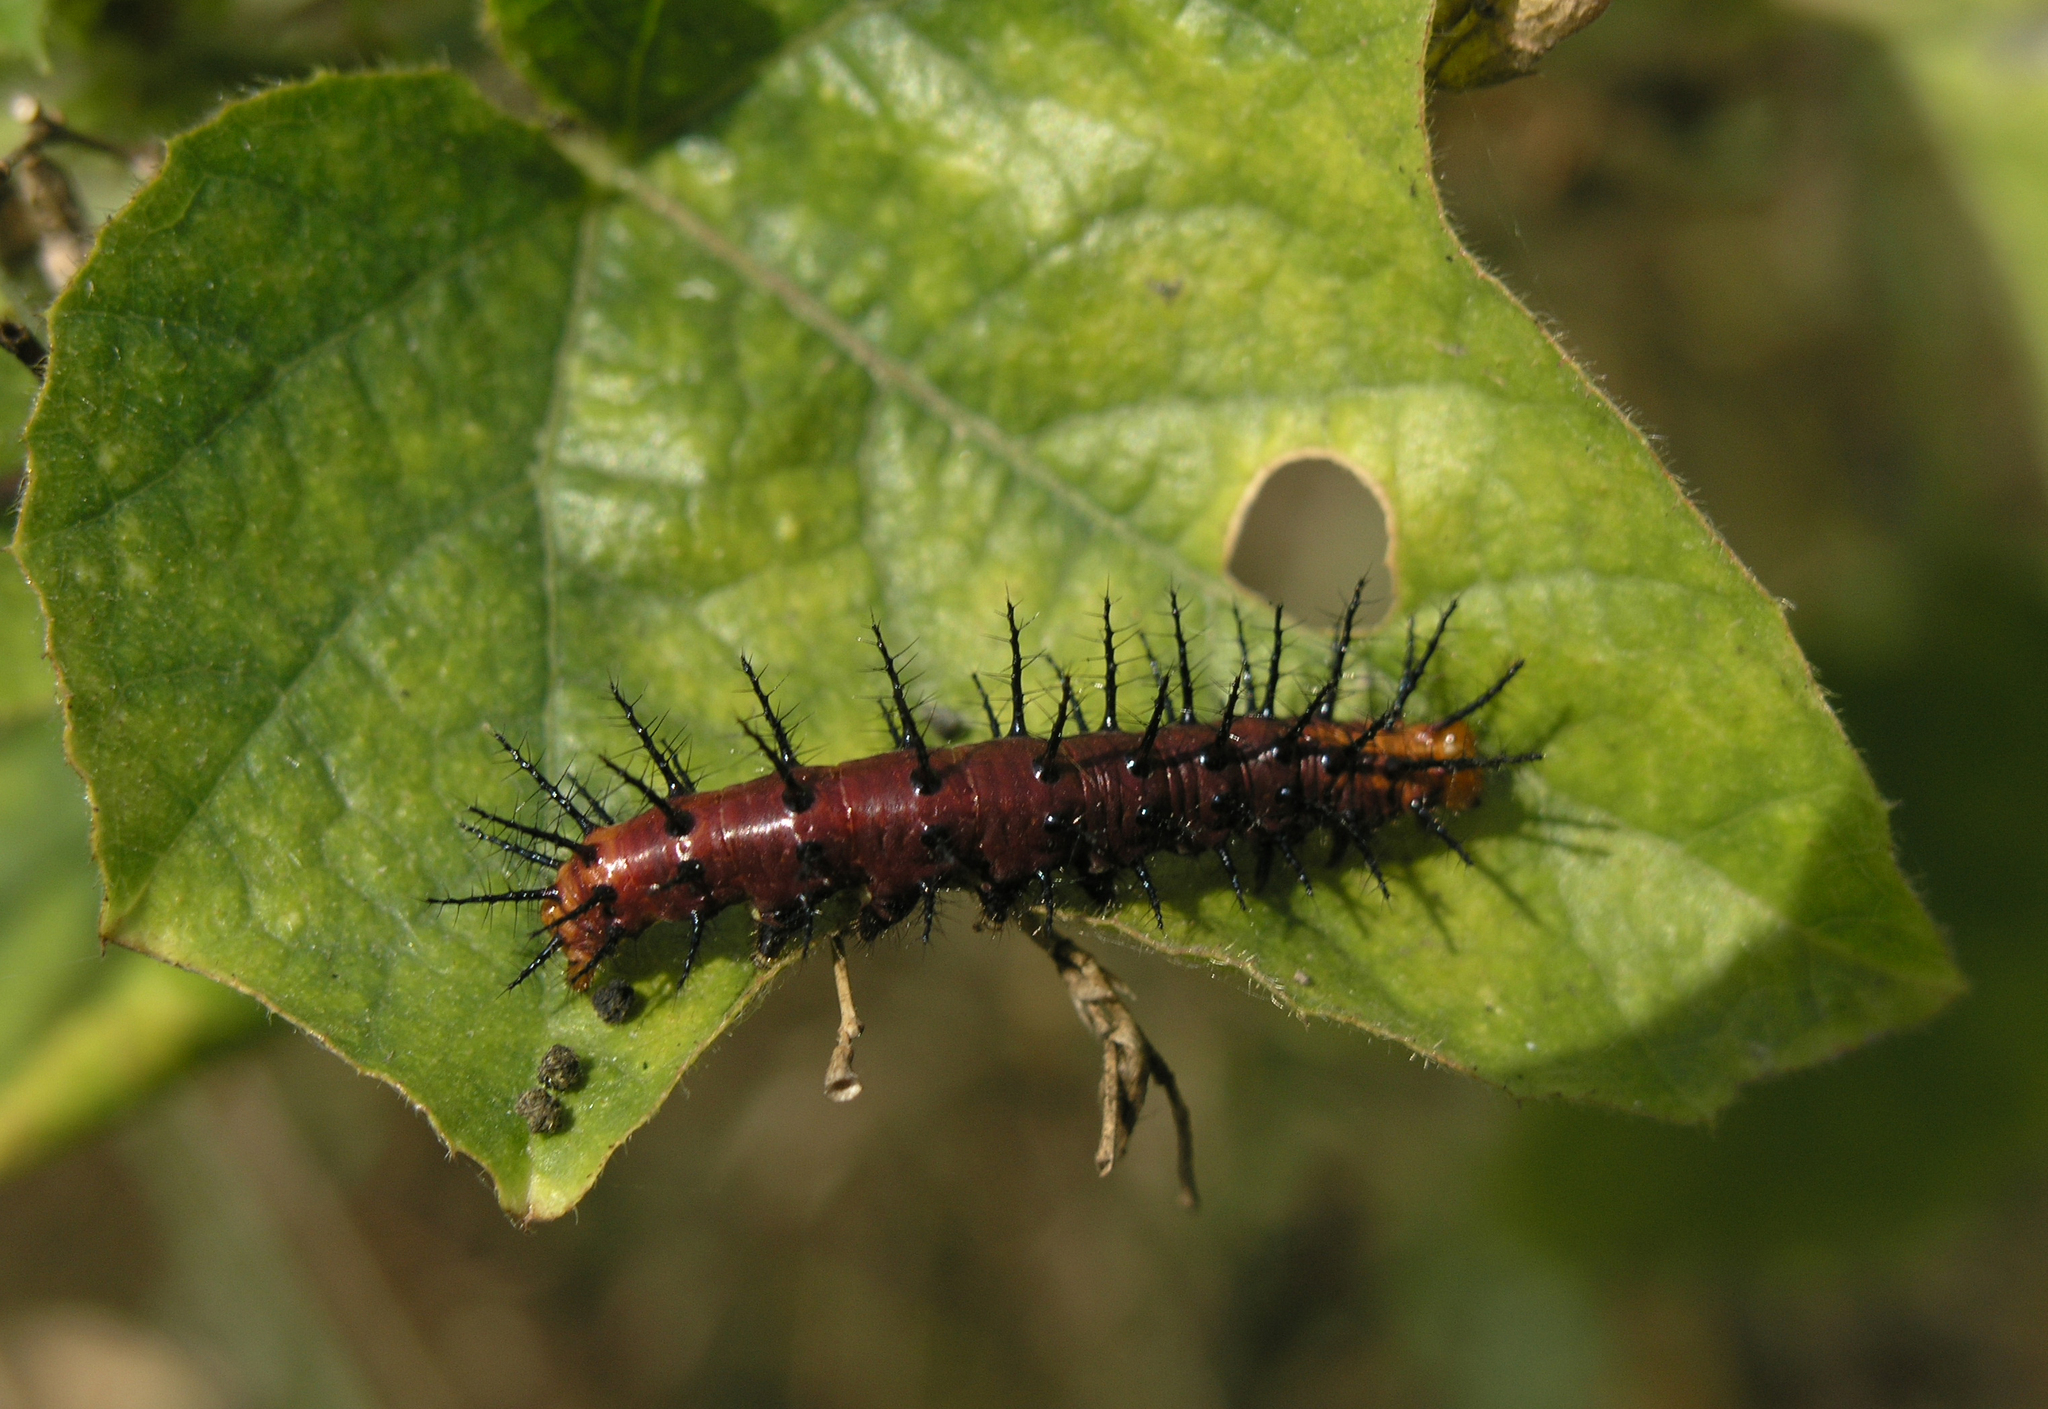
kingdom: Animalia
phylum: Arthropoda
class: Insecta
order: Lepidoptera
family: Nymphalidae
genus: Acraea
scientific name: Acraea terpsicore
